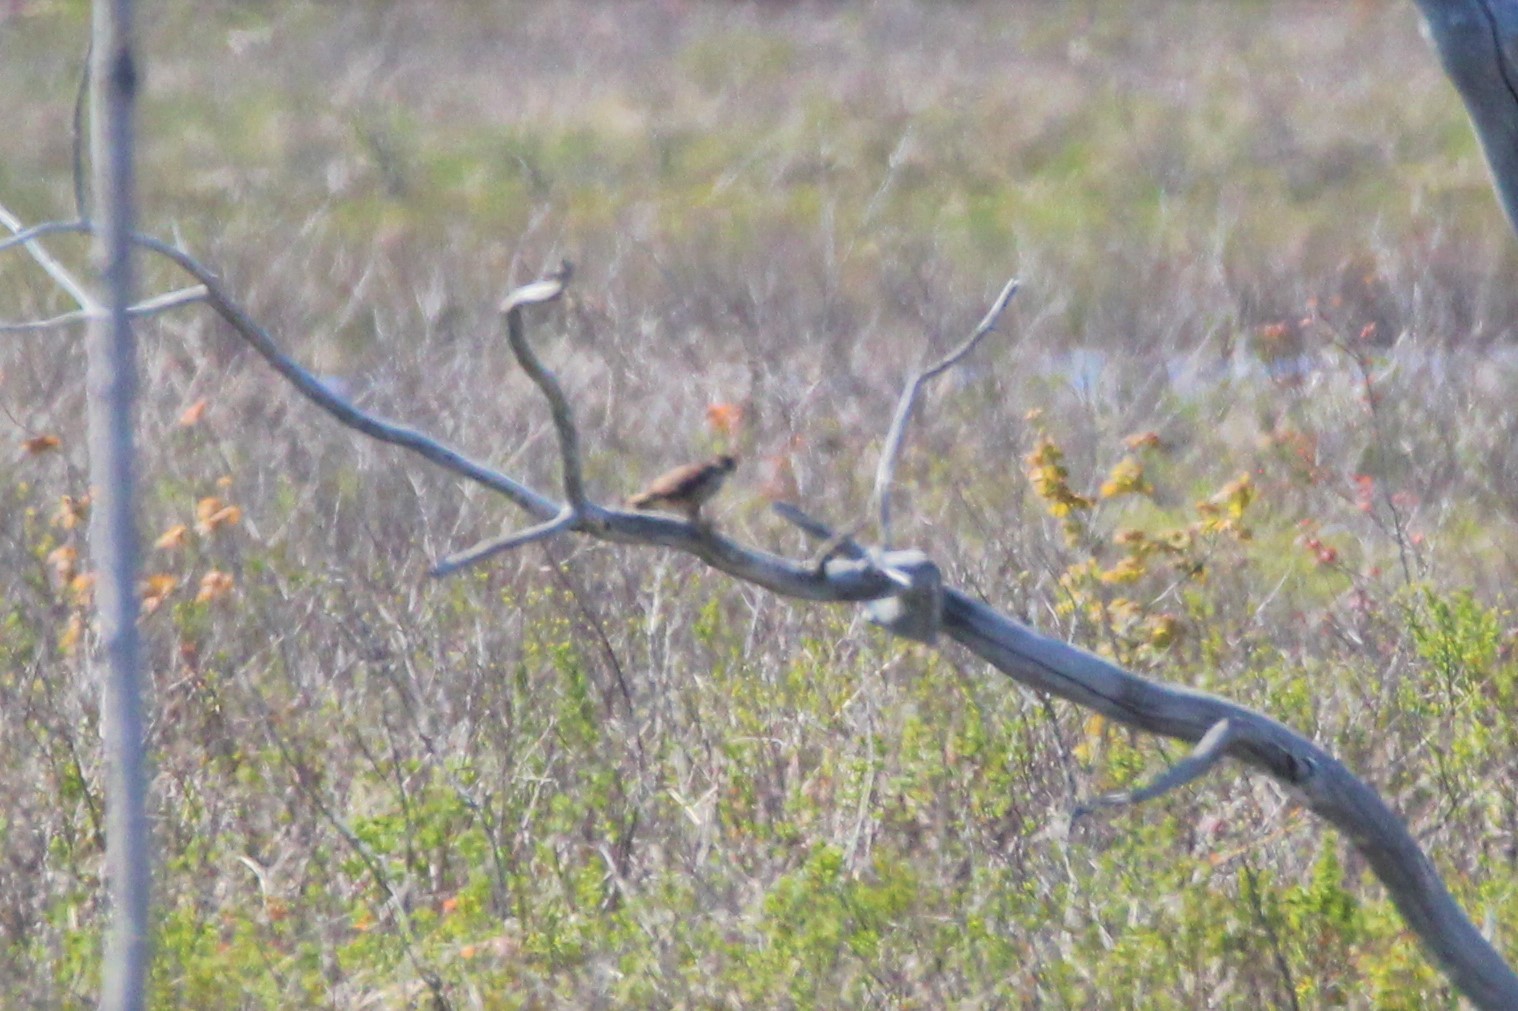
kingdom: Animalia
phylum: Chordata
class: Aves
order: Falconiformes
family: Falconidae
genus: Falco
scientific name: Falco sparverius
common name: American kestrel
